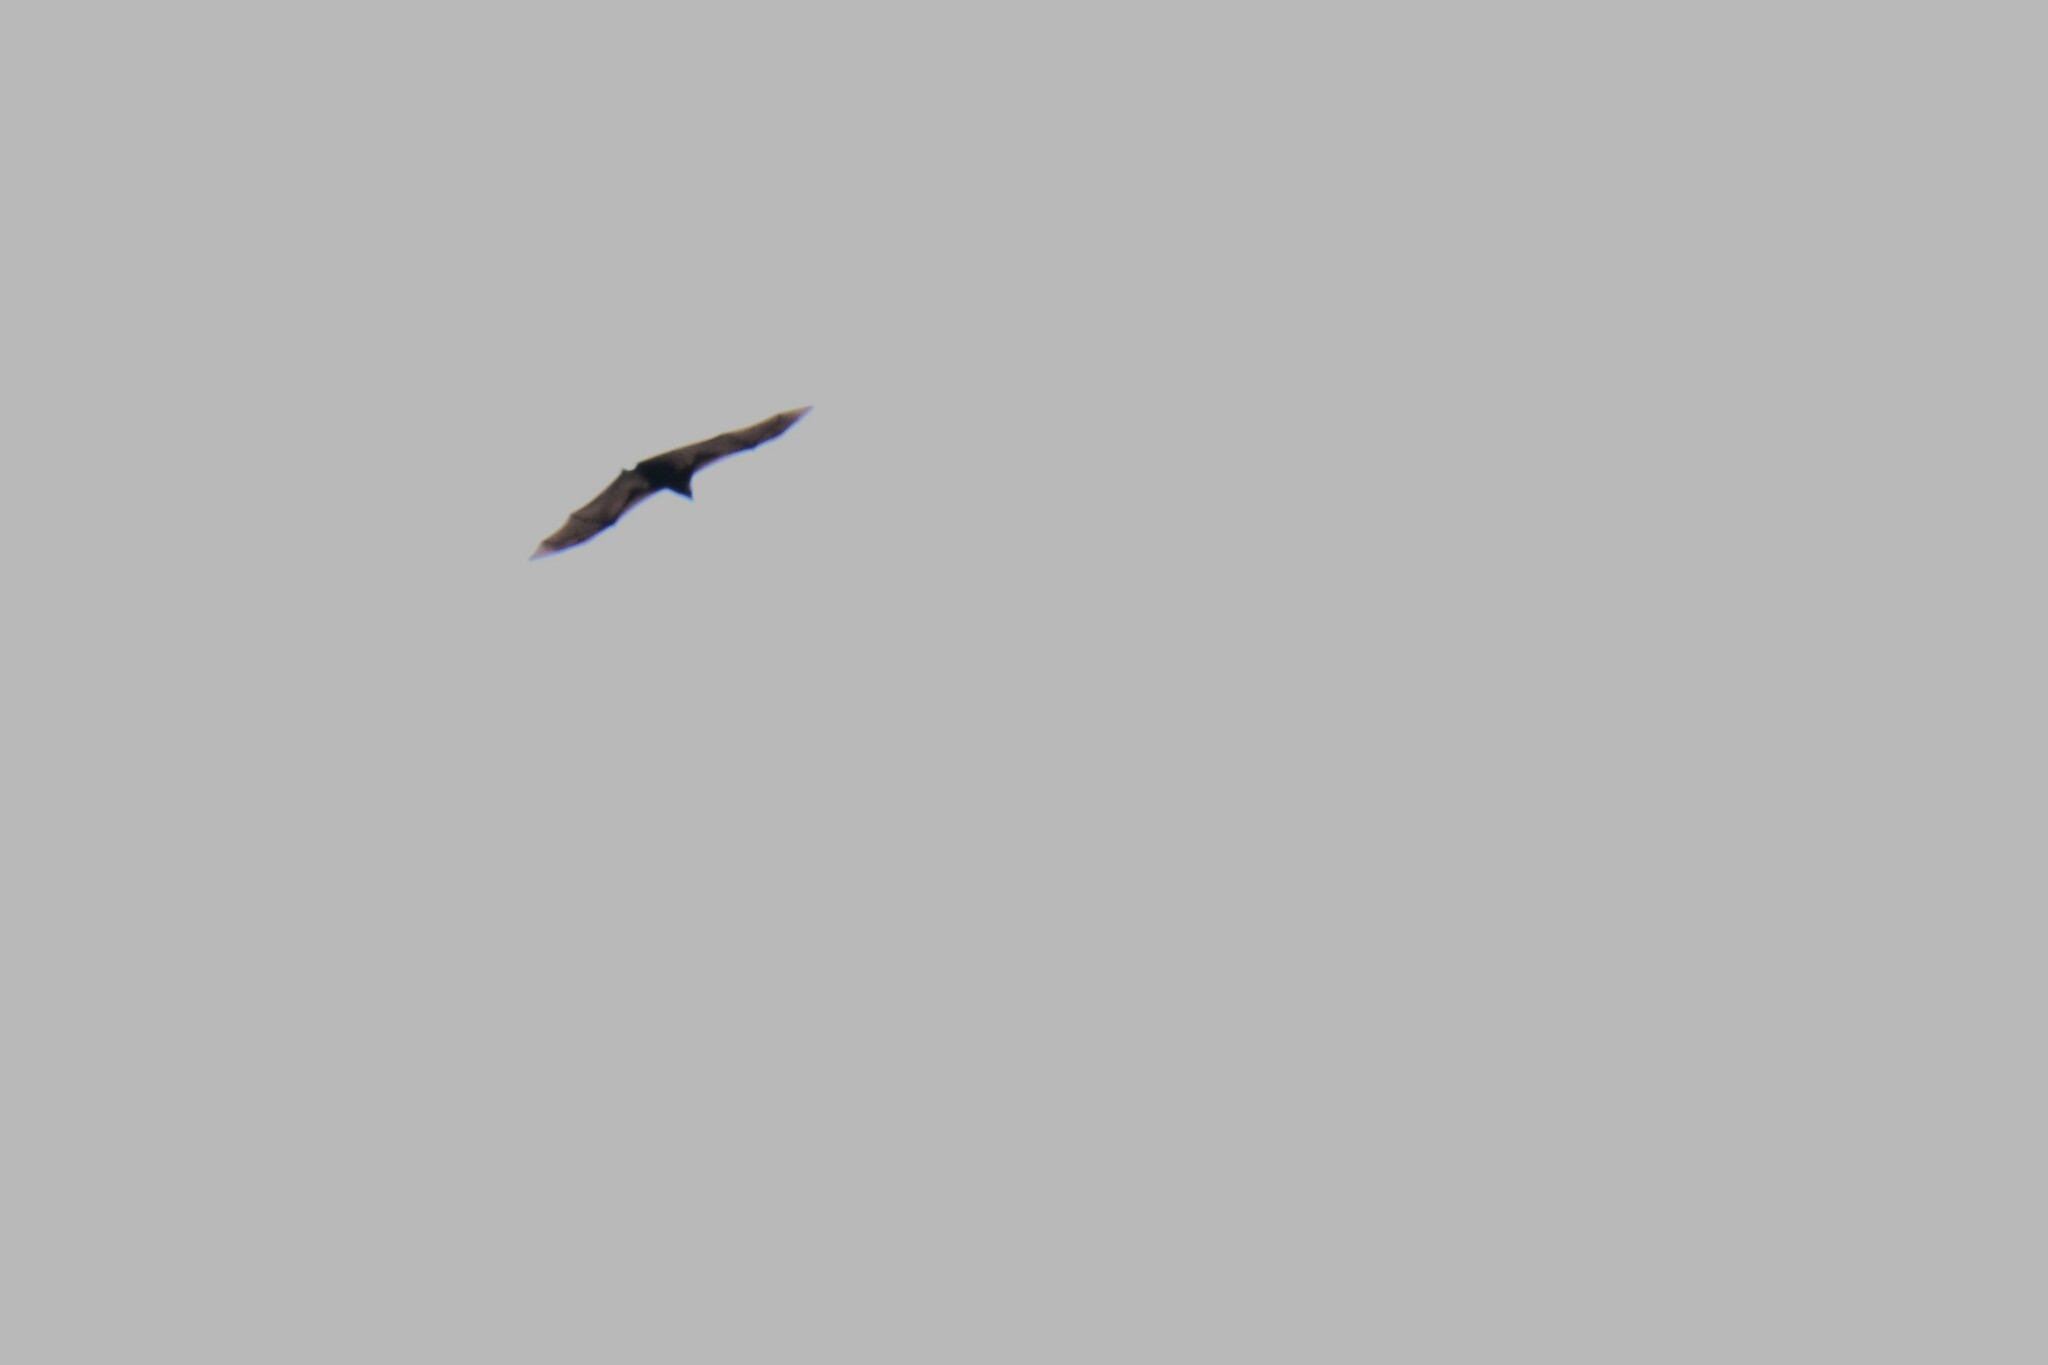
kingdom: Animalia
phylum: Chordata
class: Mammalia
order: Chiroptera
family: Pteropodidae
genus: Pteropus
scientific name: Pteropus tonganus
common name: Pacific flying fox
